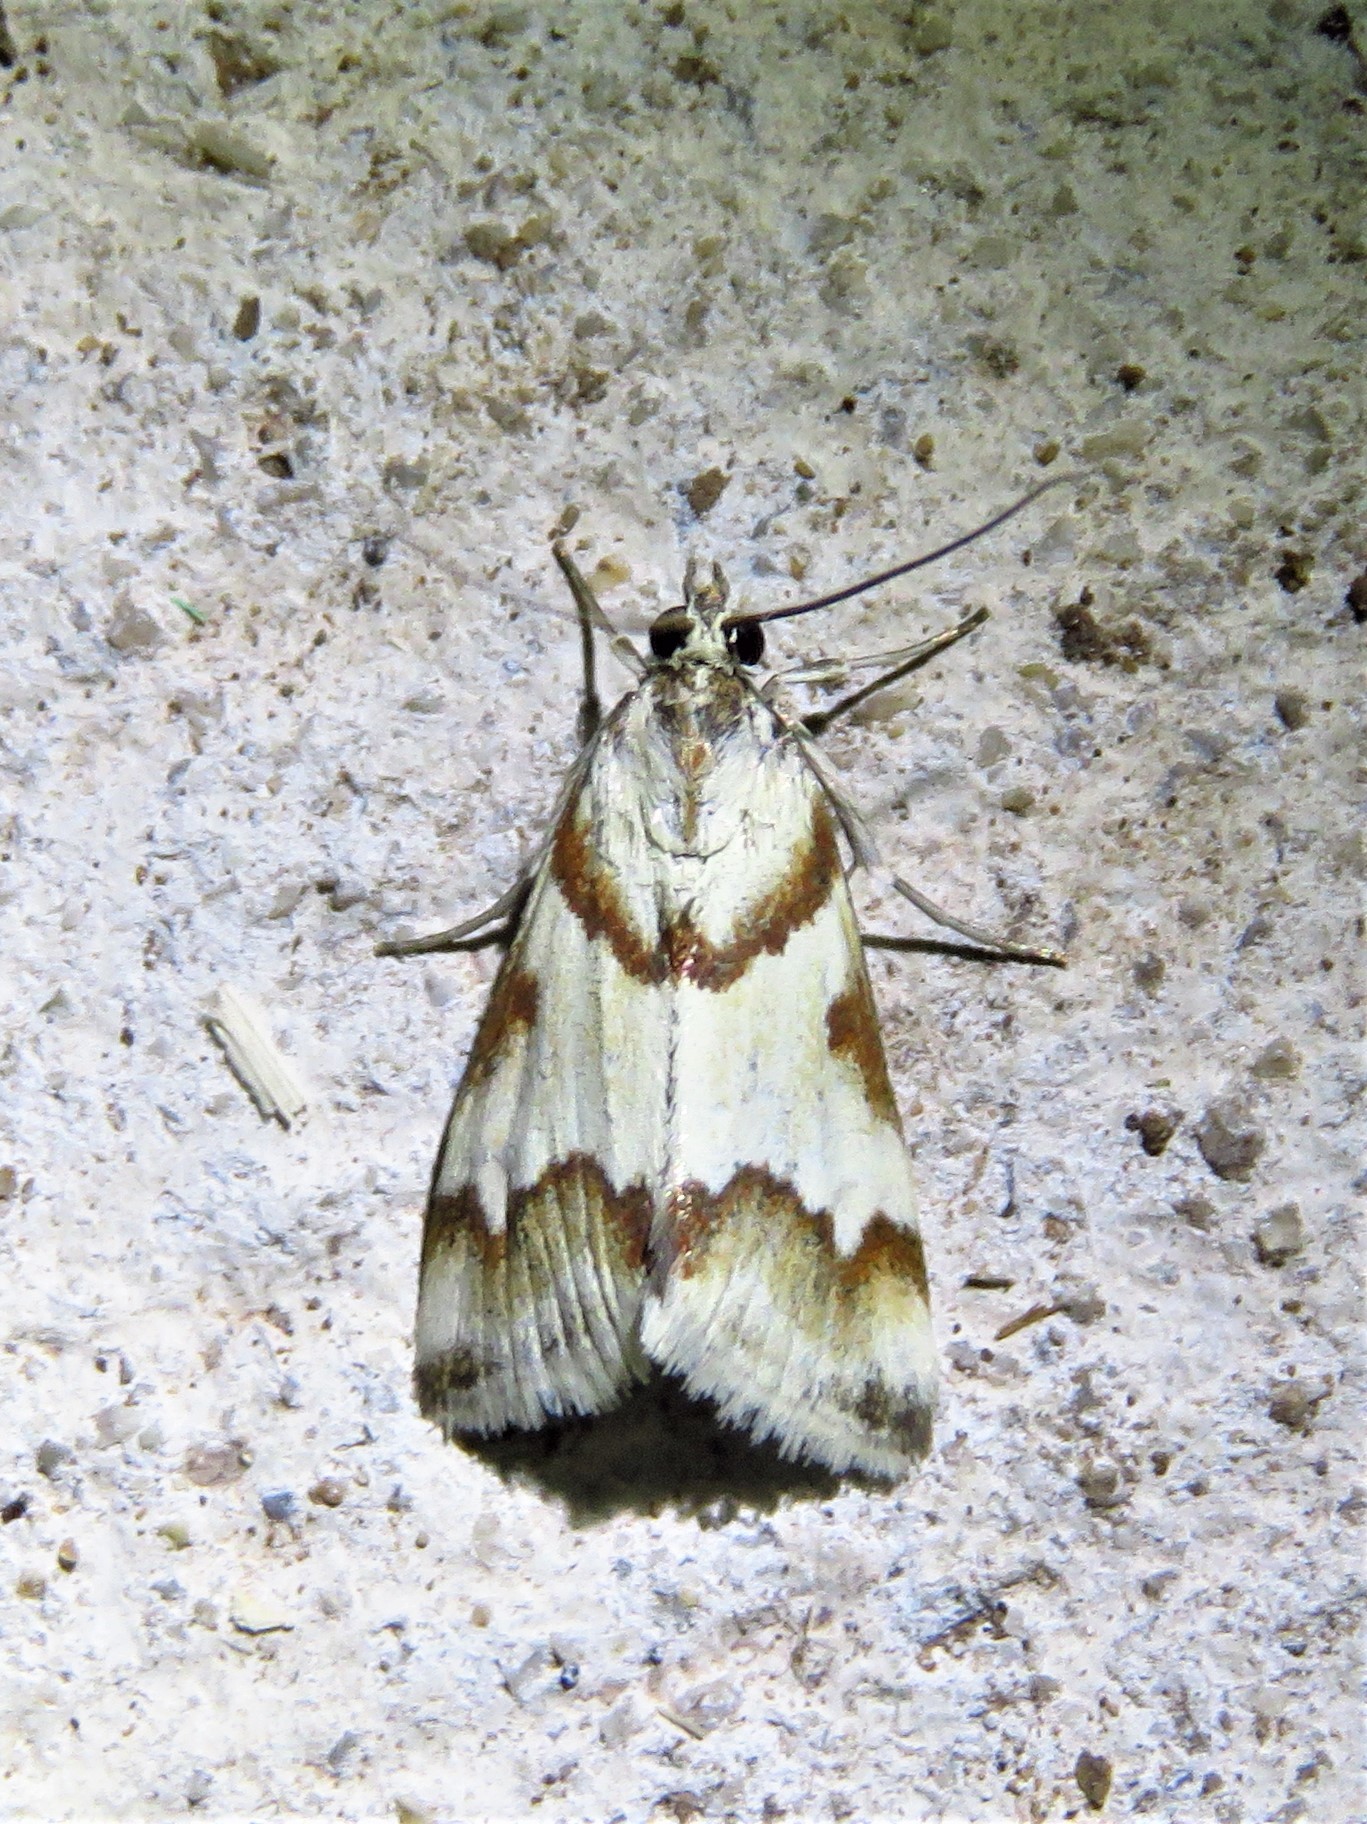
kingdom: Animalia
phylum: Arthropoda
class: Insecta
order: Lepidoptera
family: Crambidae
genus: Noctuelia
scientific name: Noctuelia Mimoschinia rufofascialis
